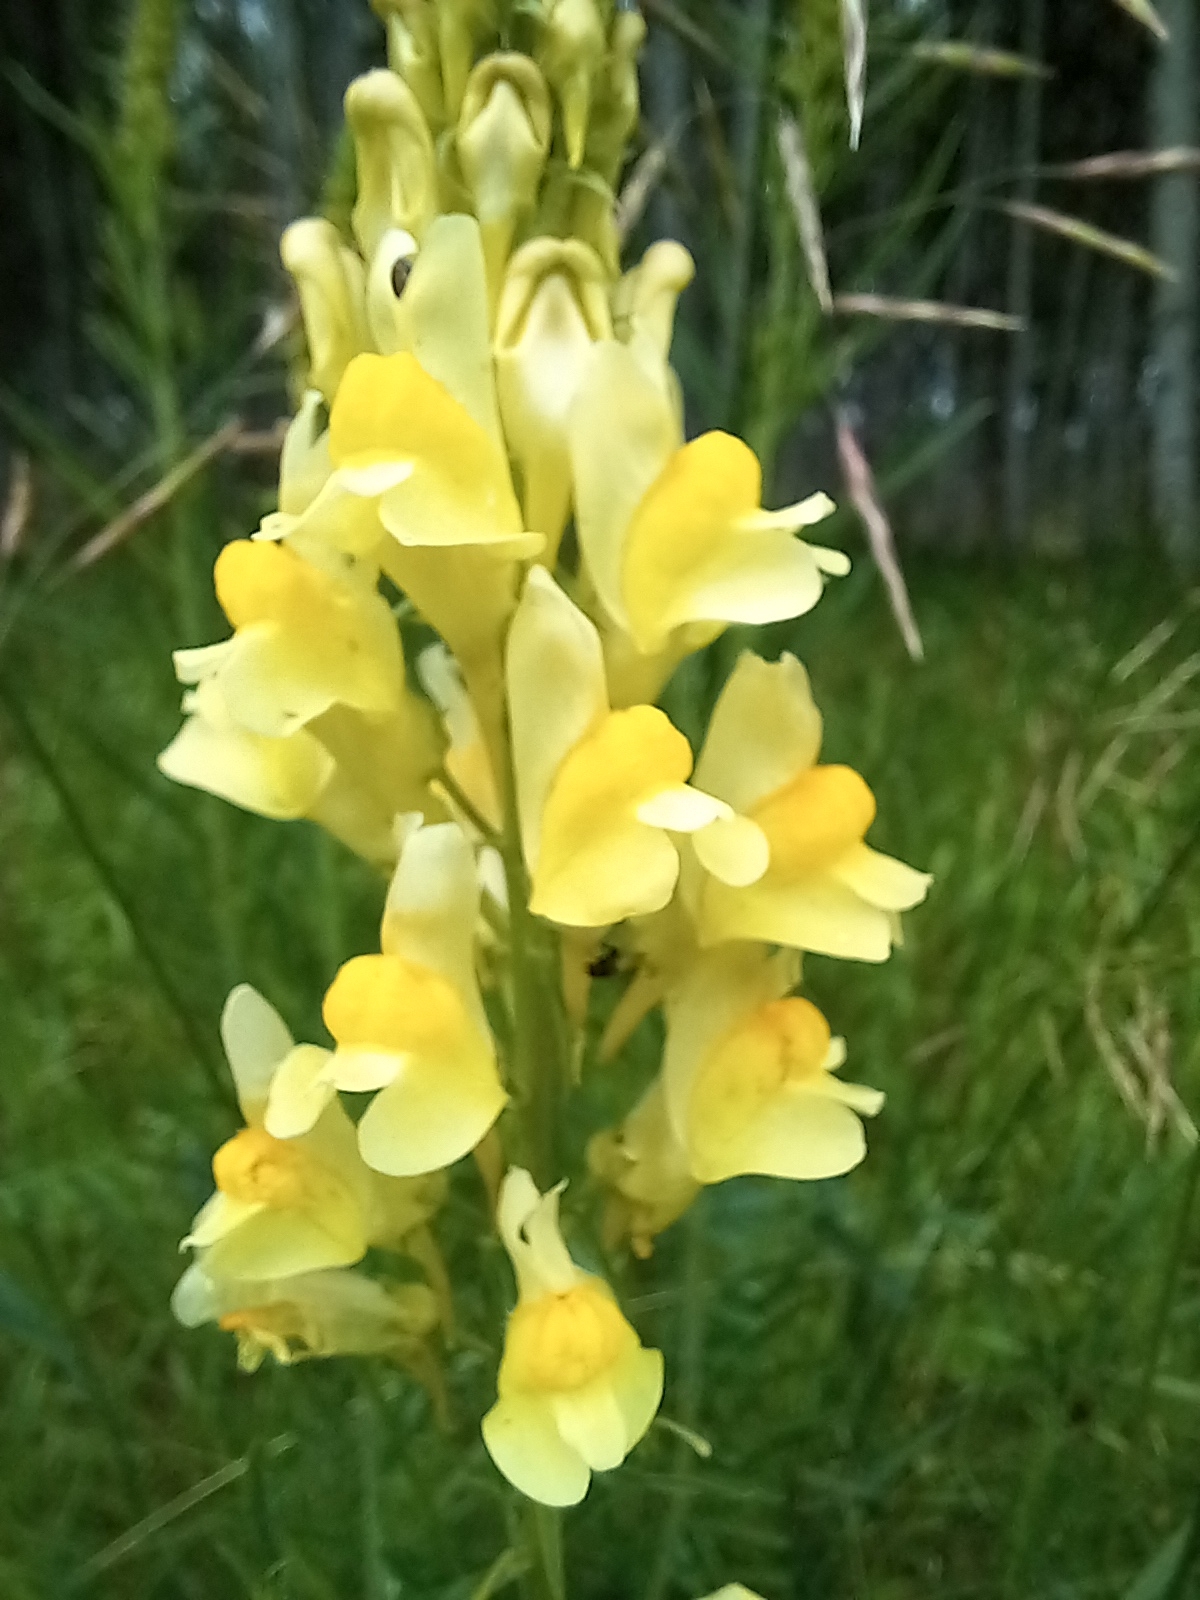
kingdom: Plantae
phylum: Tracheophyta
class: Magnoliopsida
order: Lamiales
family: Plantaginaceae
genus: Linaria
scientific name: Linaria vulgaris
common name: Butter and eggs
